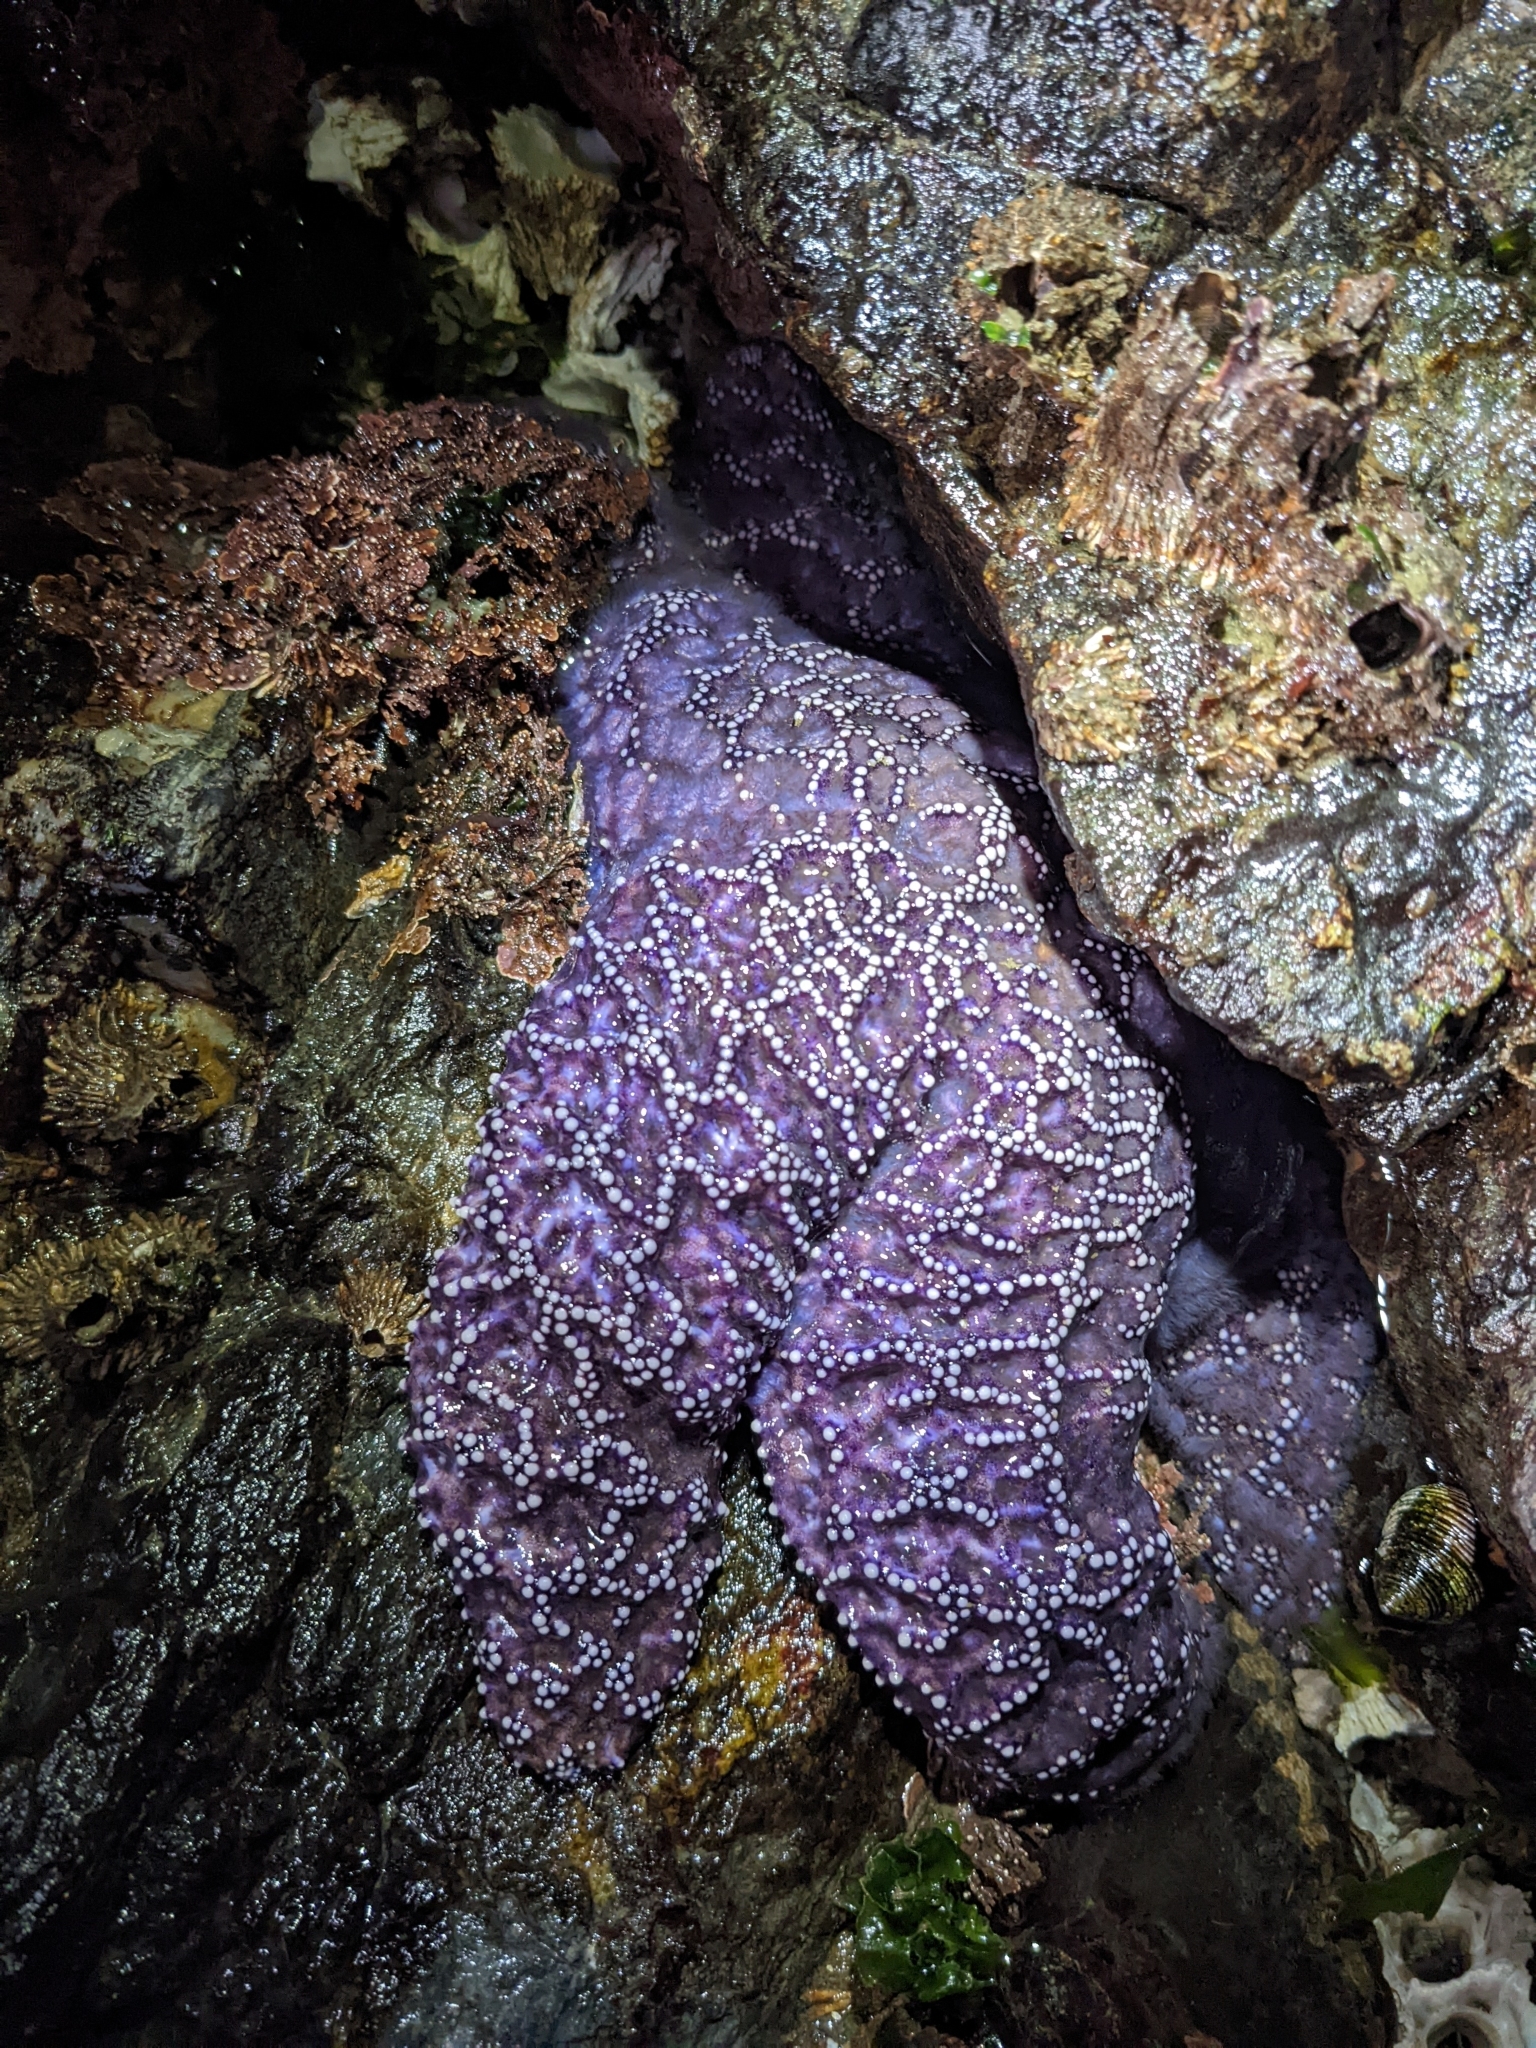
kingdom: Animalia
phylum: Echinodermata
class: Asteroidea
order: Forcipulatida
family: Asteriidae
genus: Pisaster
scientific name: Pisaster ochraceus
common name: Ochre stars
